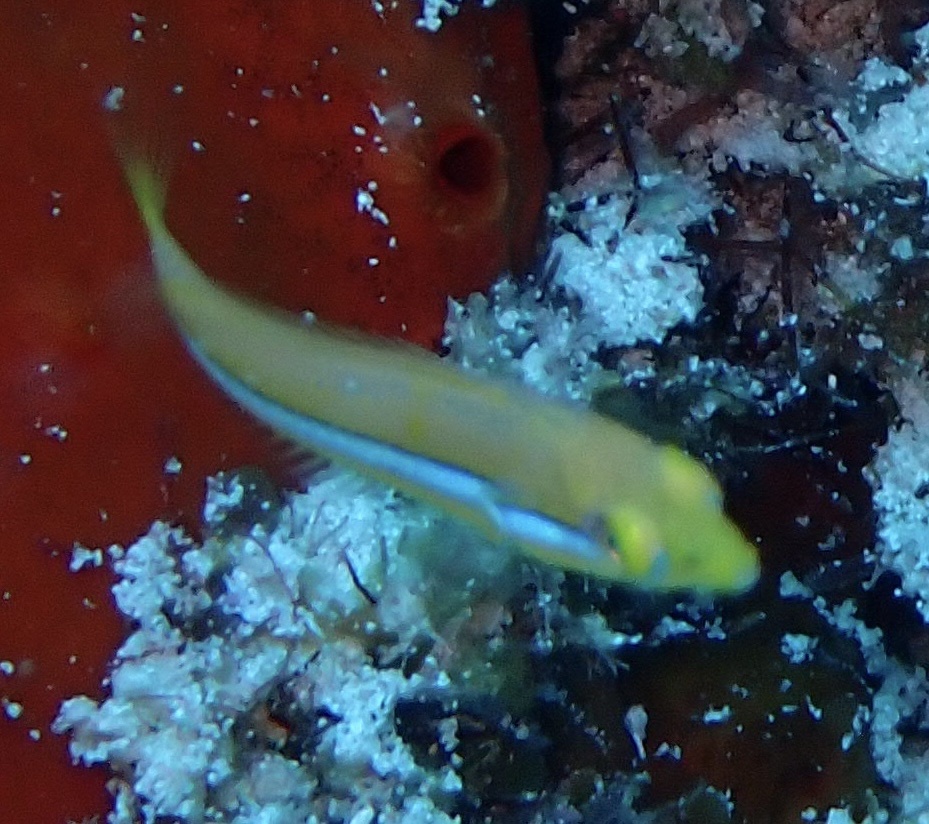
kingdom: Animalia
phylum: Chordata
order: Perciformes
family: Labridae
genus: Halichoeres
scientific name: Halichoeres garnoti
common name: Yellowhead wrasse
